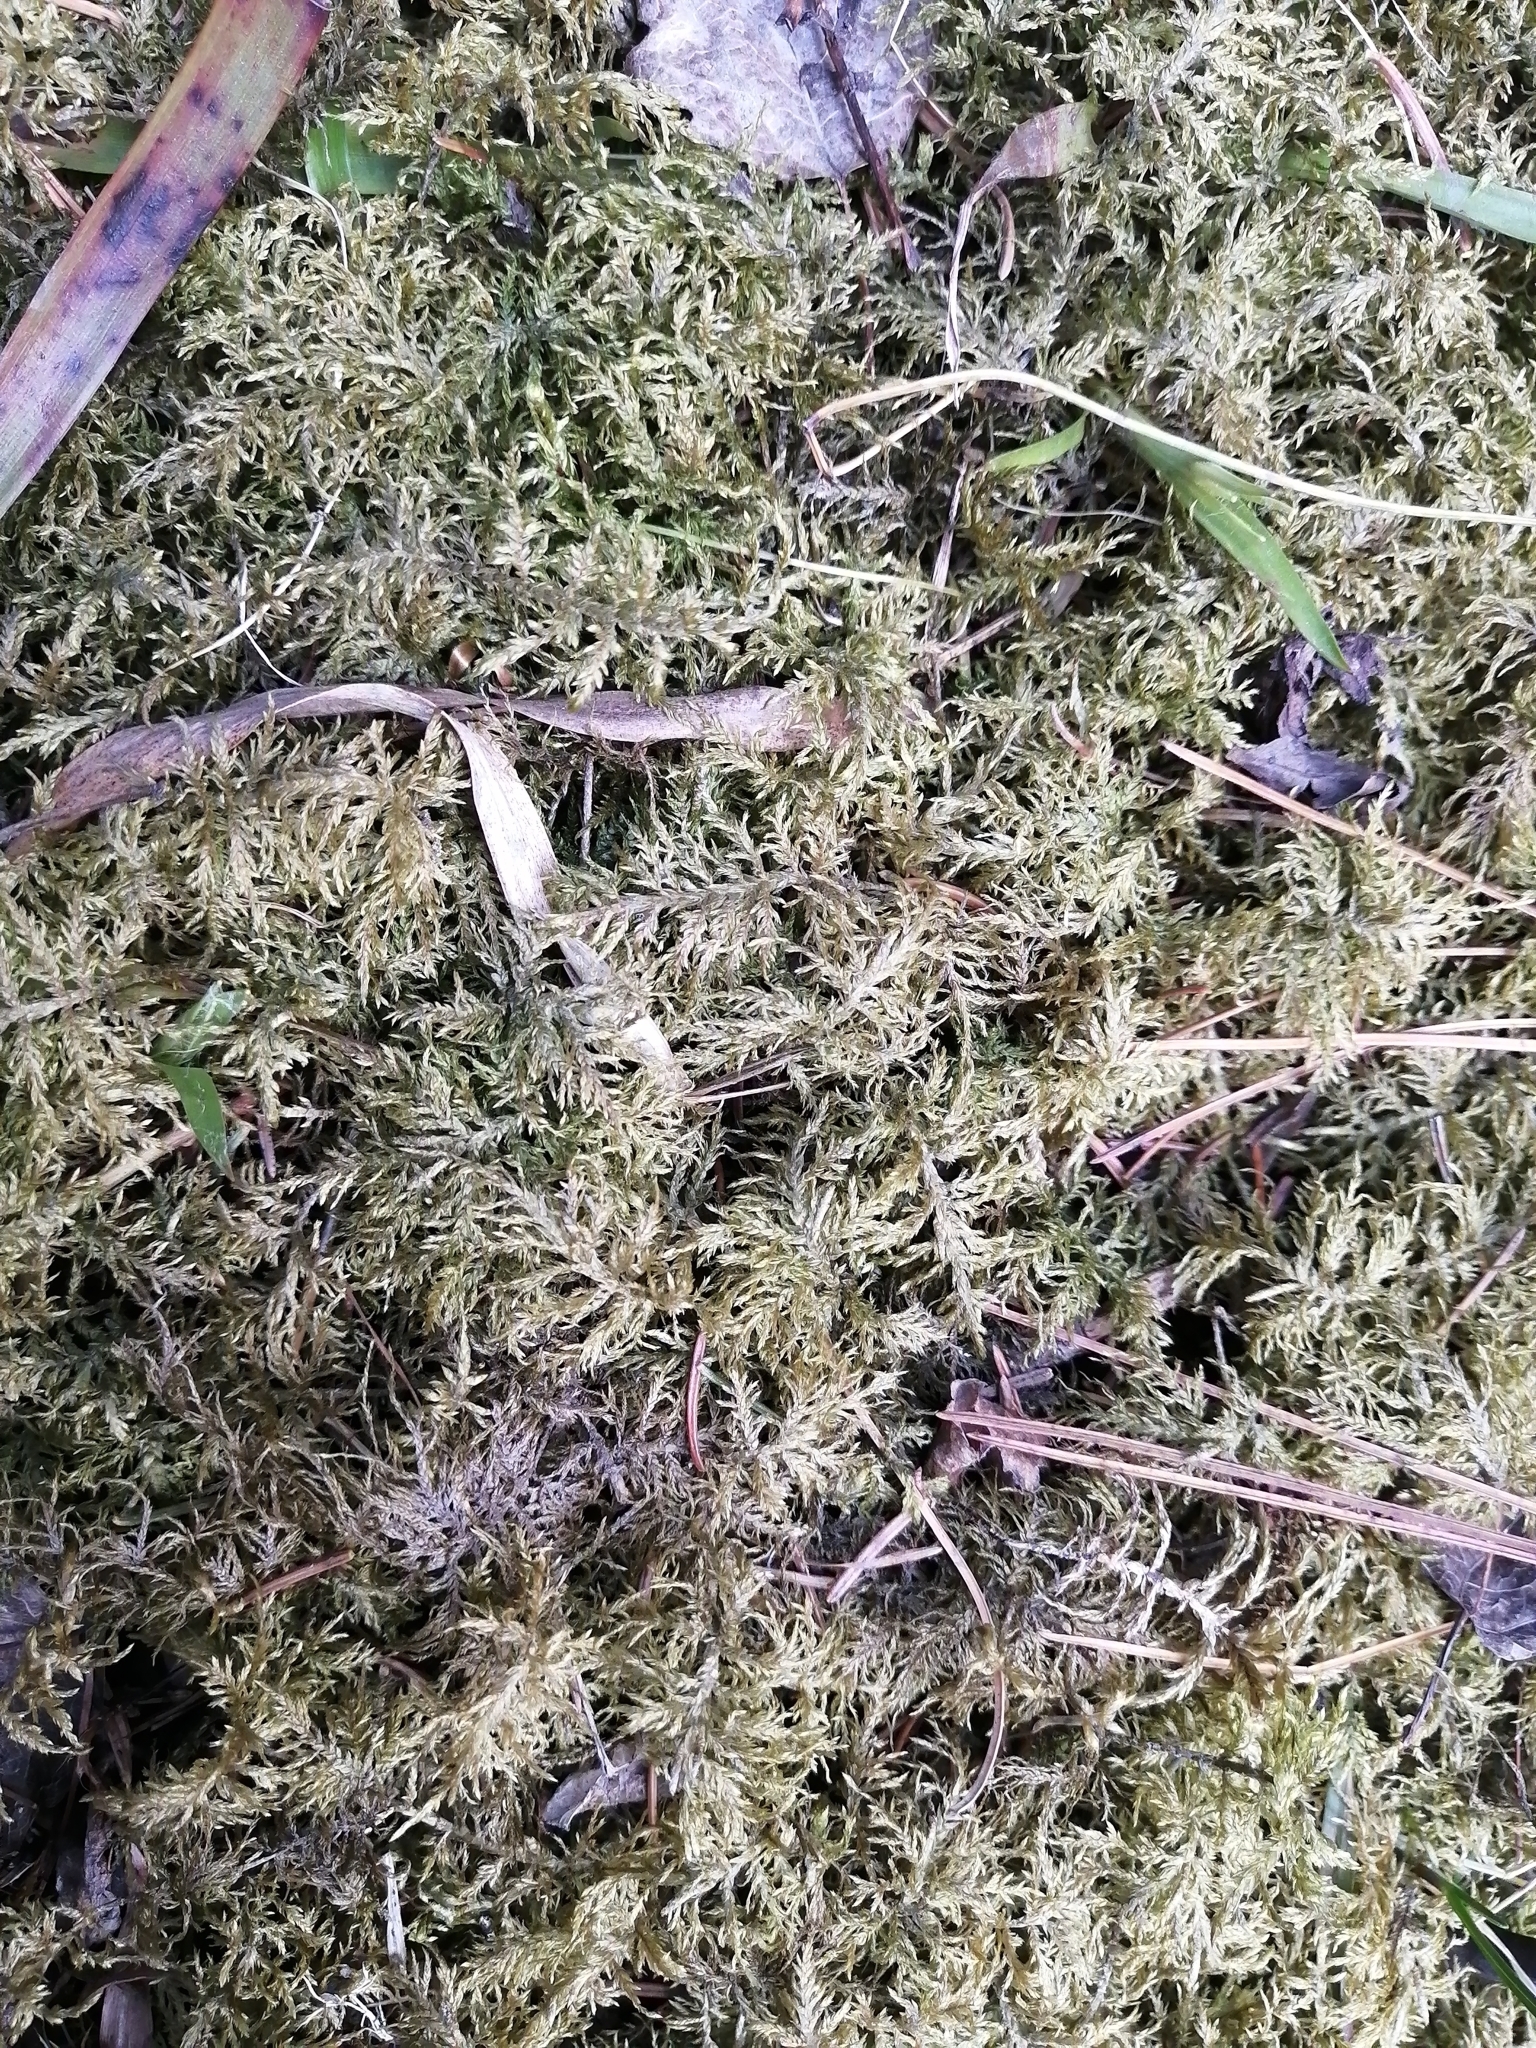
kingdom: Plantae
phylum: Bryophyta
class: Bryopsida
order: Hypnales
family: Hylocomiaceae
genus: Hylocomium
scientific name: Hylocomium splendens
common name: Stairstep moss
